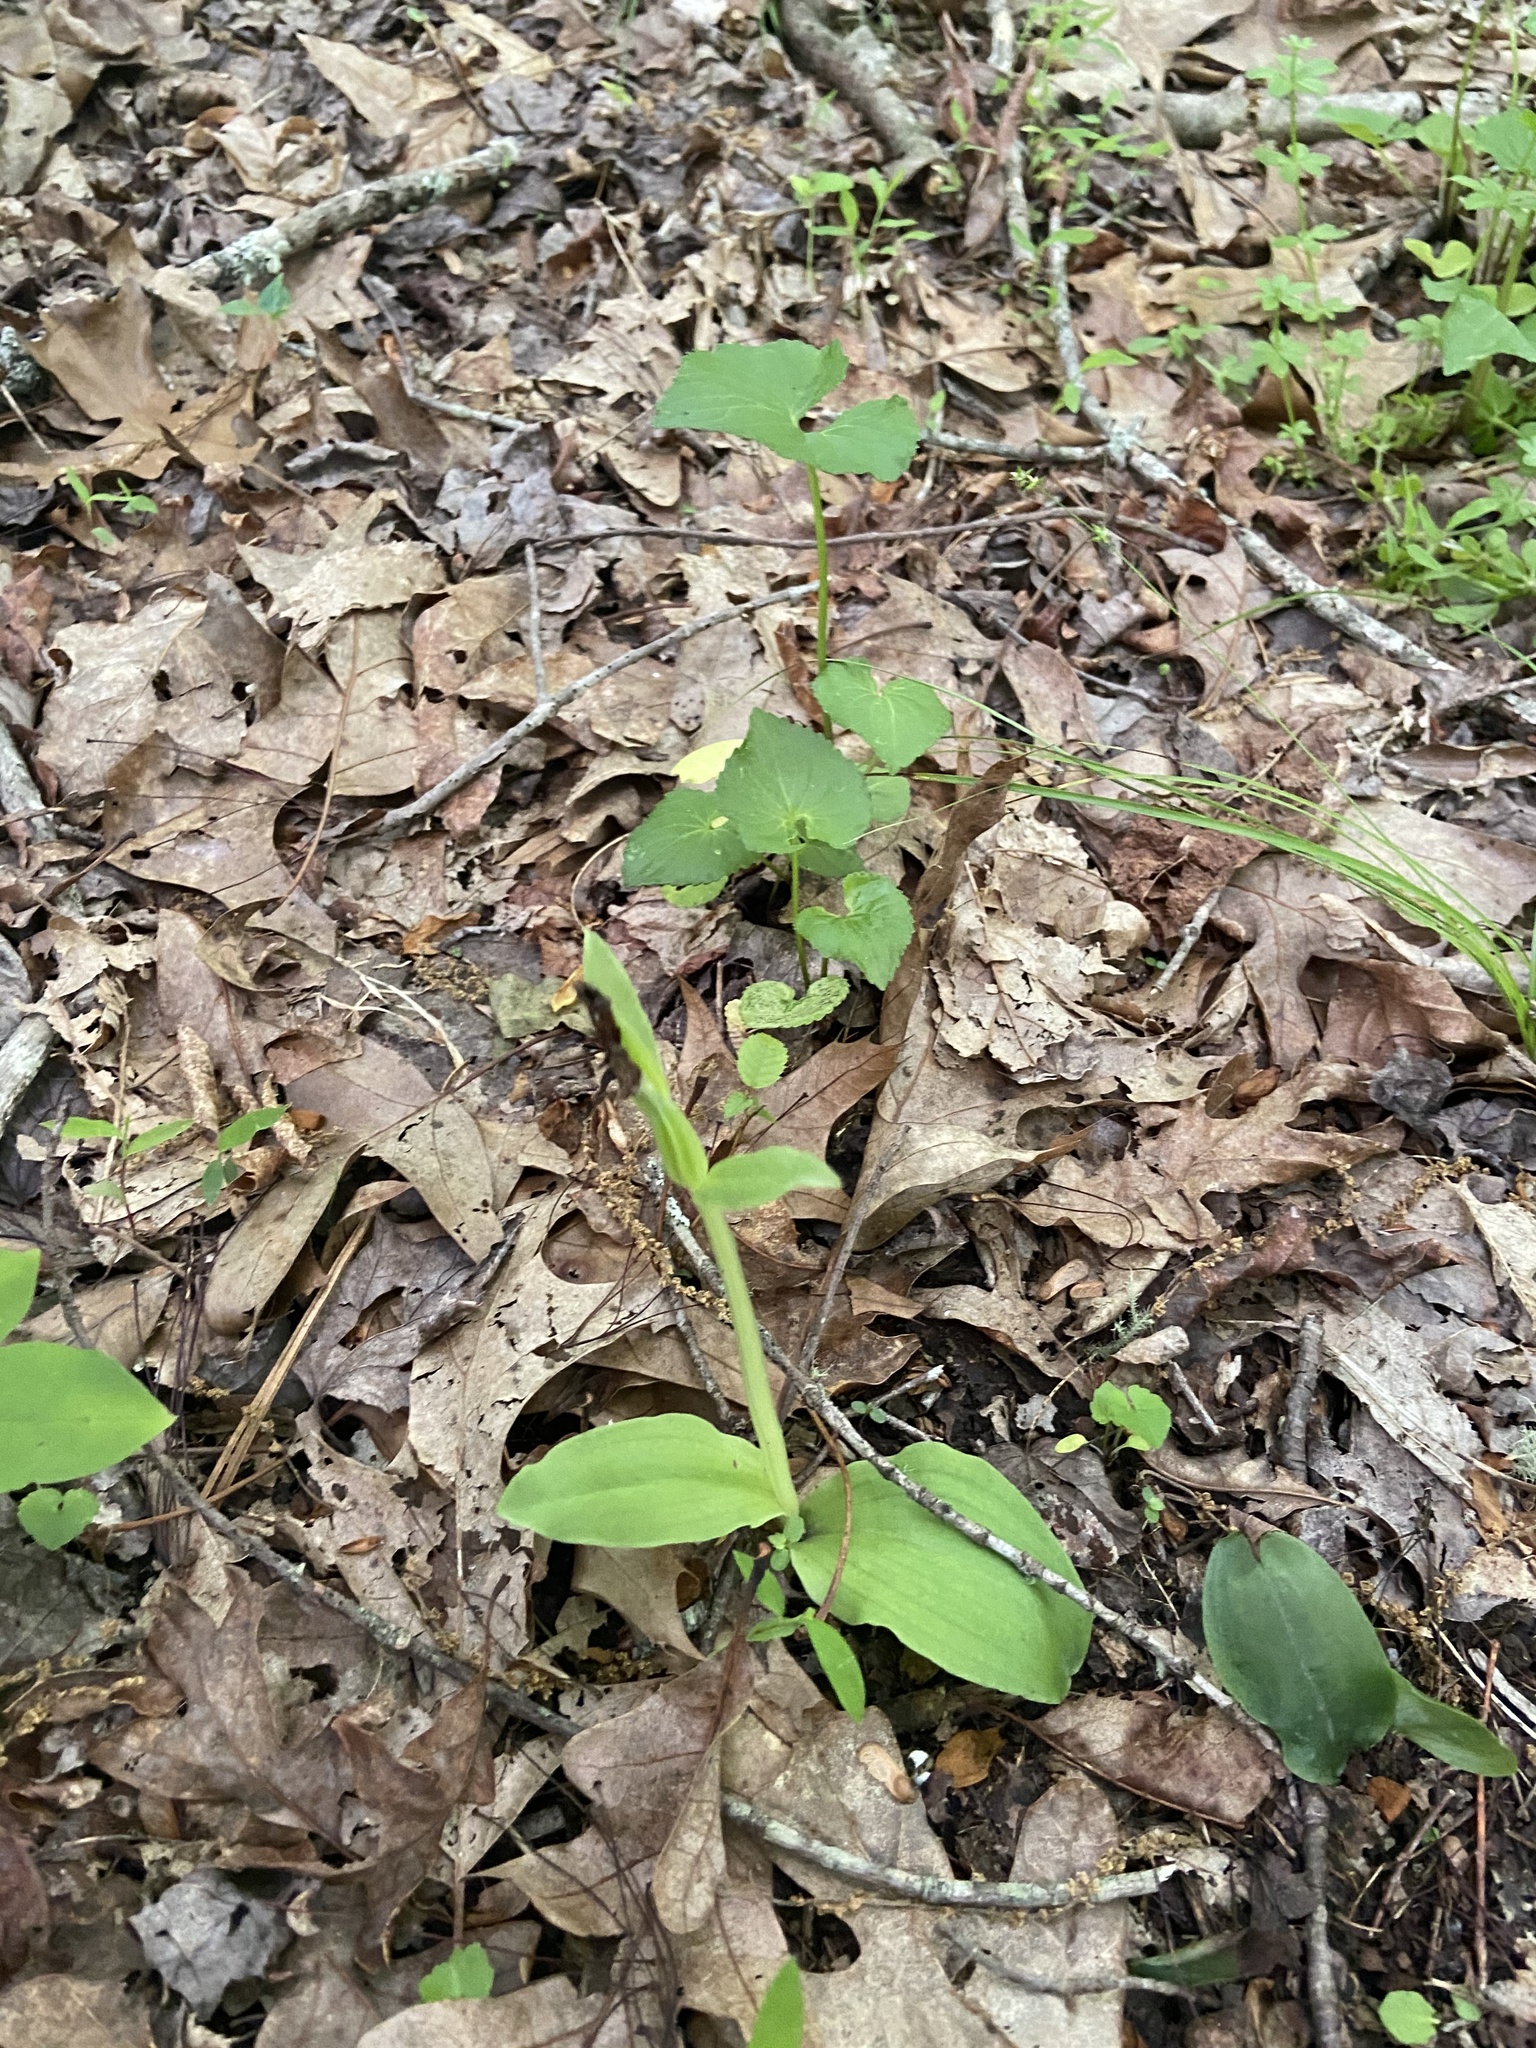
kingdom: Plantae
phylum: Tracheophyta
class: Liliopsida
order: Asparagales
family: Orchidaceae
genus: Galearis
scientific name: Galearis spectabilis
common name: Purple-hooded orchis
